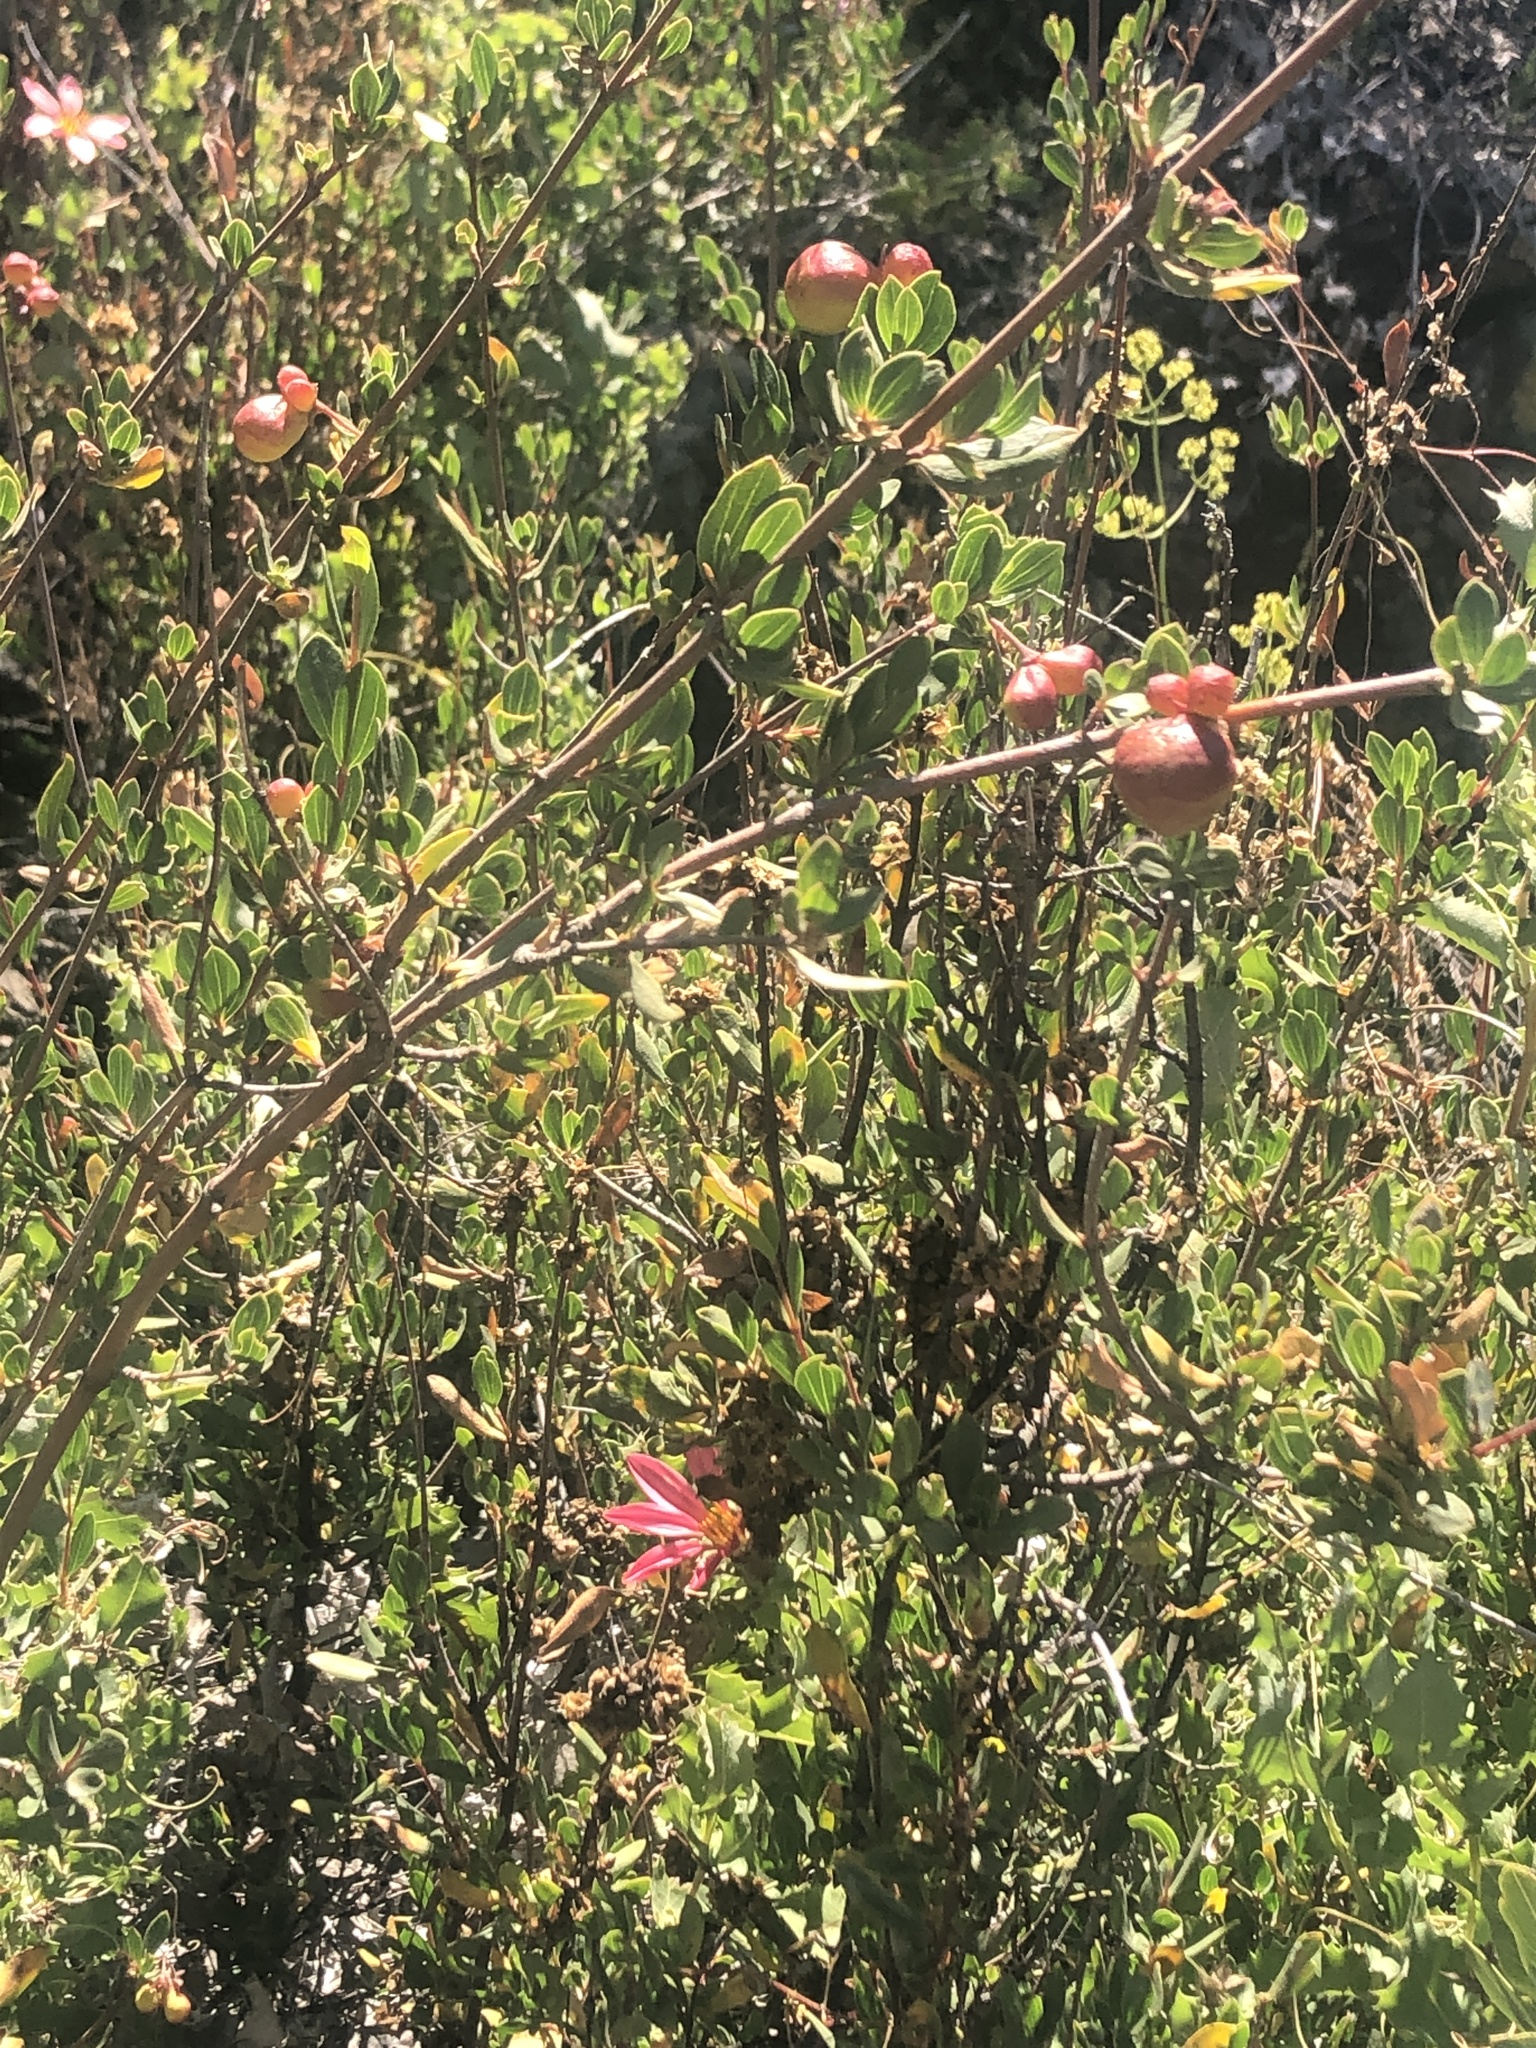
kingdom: Plantae
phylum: Tracheophyta
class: Magnoliopsida
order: Sapindales
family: Sapindaceae
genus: Guindilia
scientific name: Guindilia trinervis
